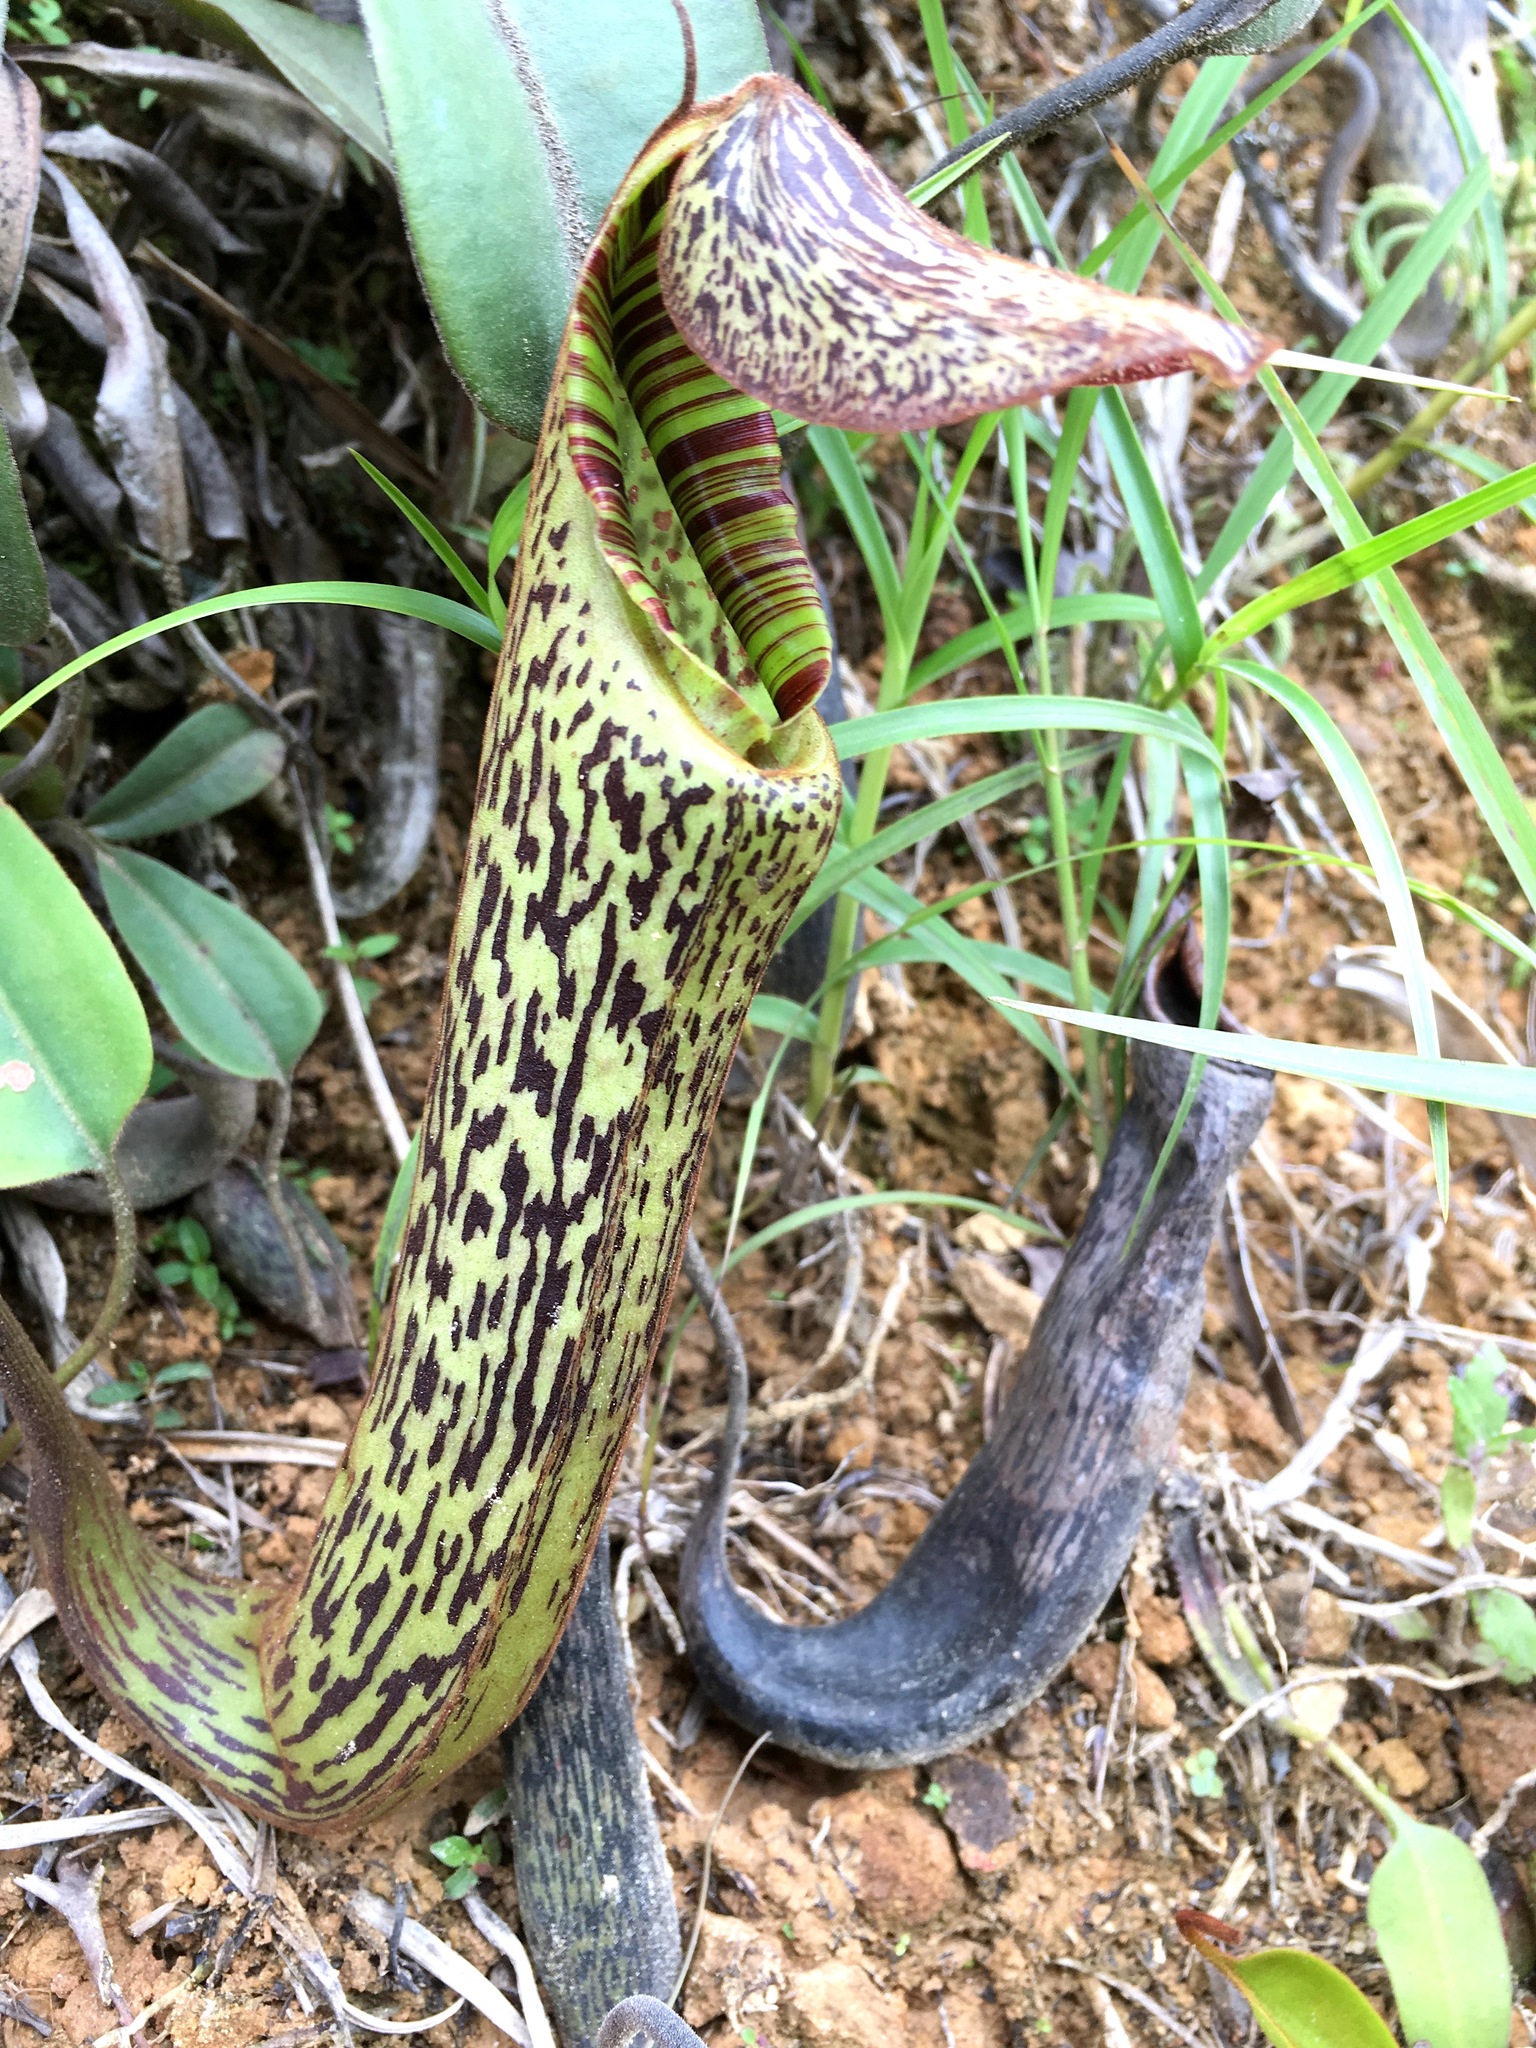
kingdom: Plantae
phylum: Tracheophyta
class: Magnoliopsida
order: Caryophyllales
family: Nepenthaceae
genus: Nepenthes
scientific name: Nepenthes vogelii
